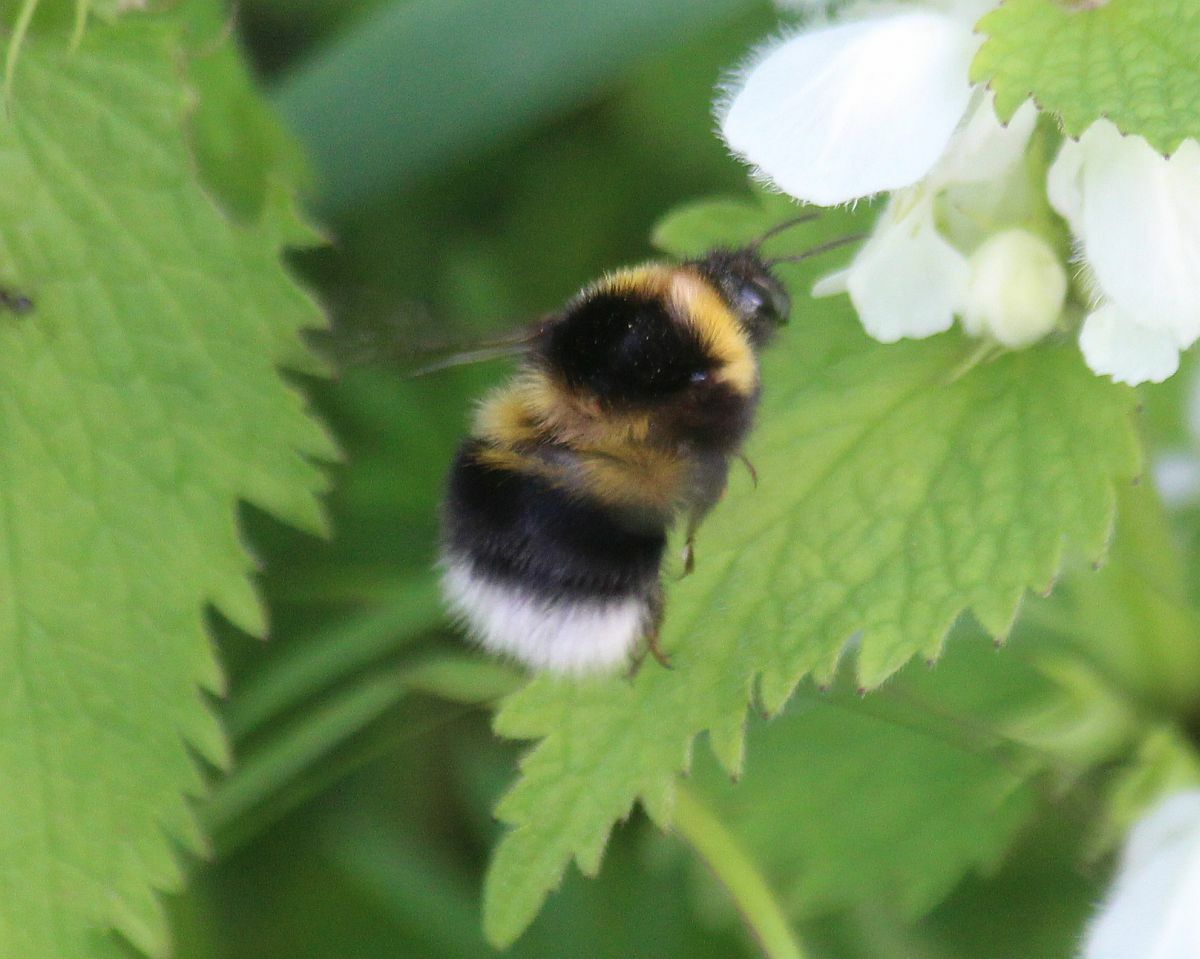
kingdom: Animalia
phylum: Arthropoda
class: Insecta
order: Hymenoptera
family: Apidae
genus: Bombus
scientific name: Bombus hortorum
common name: Garden bumblebee
